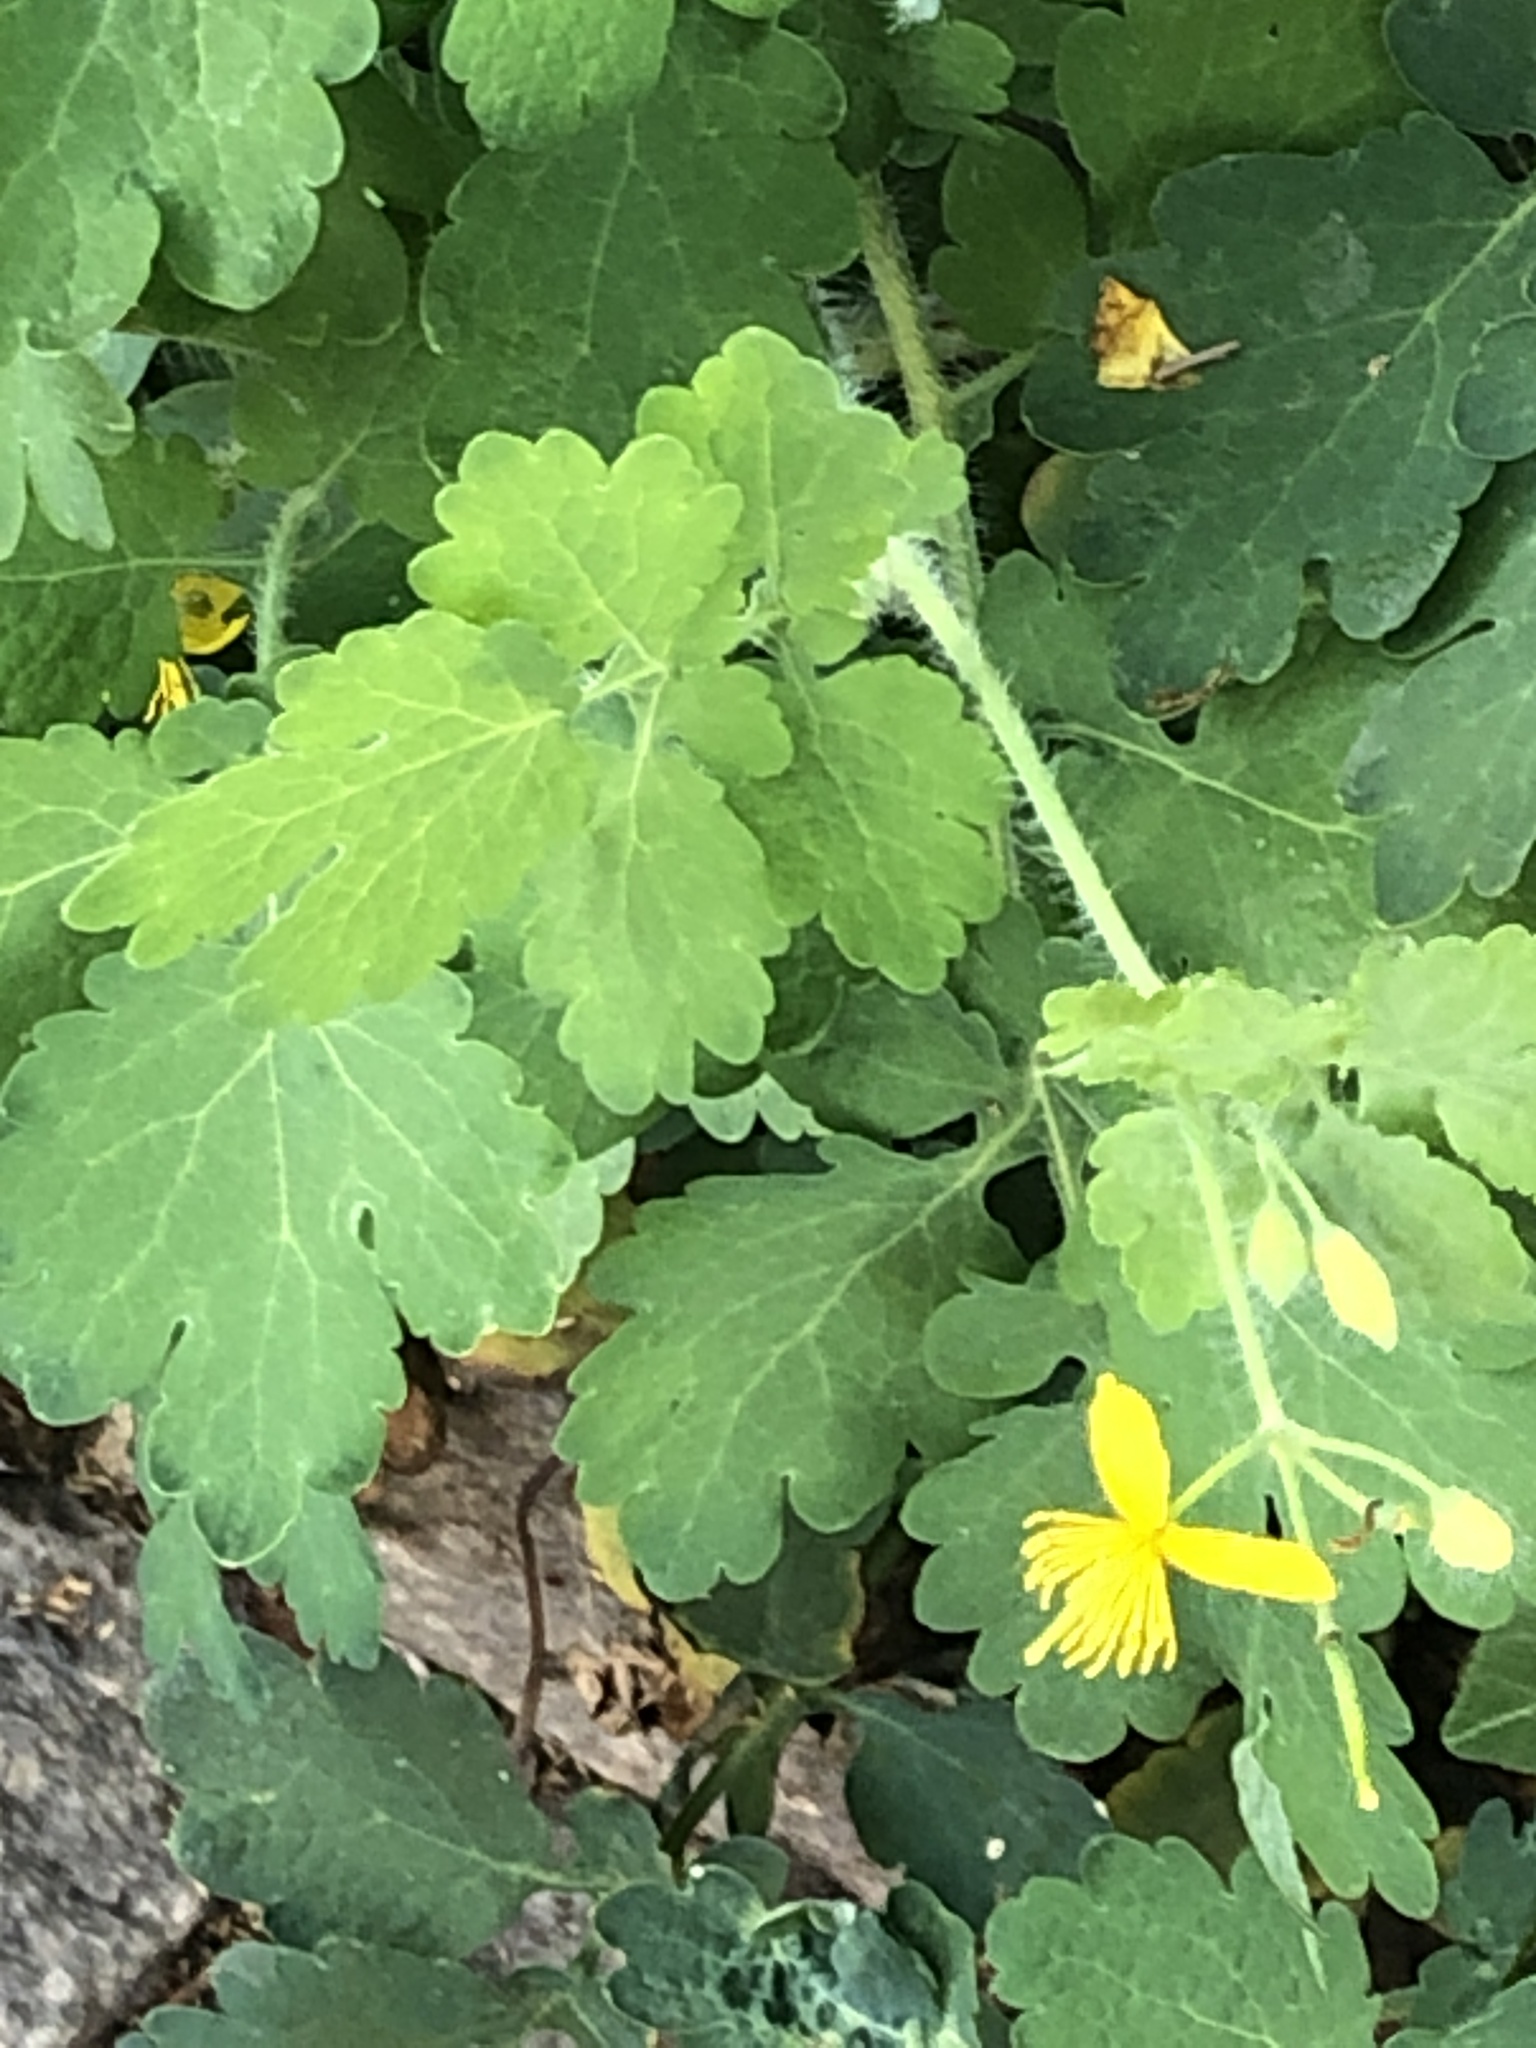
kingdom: Plantae
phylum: Tracheophyta
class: Magnoliopsida
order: Ranunculales
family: Papaveraceae
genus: Chelidonium
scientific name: Chelidonium majus
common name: Greater celandine
